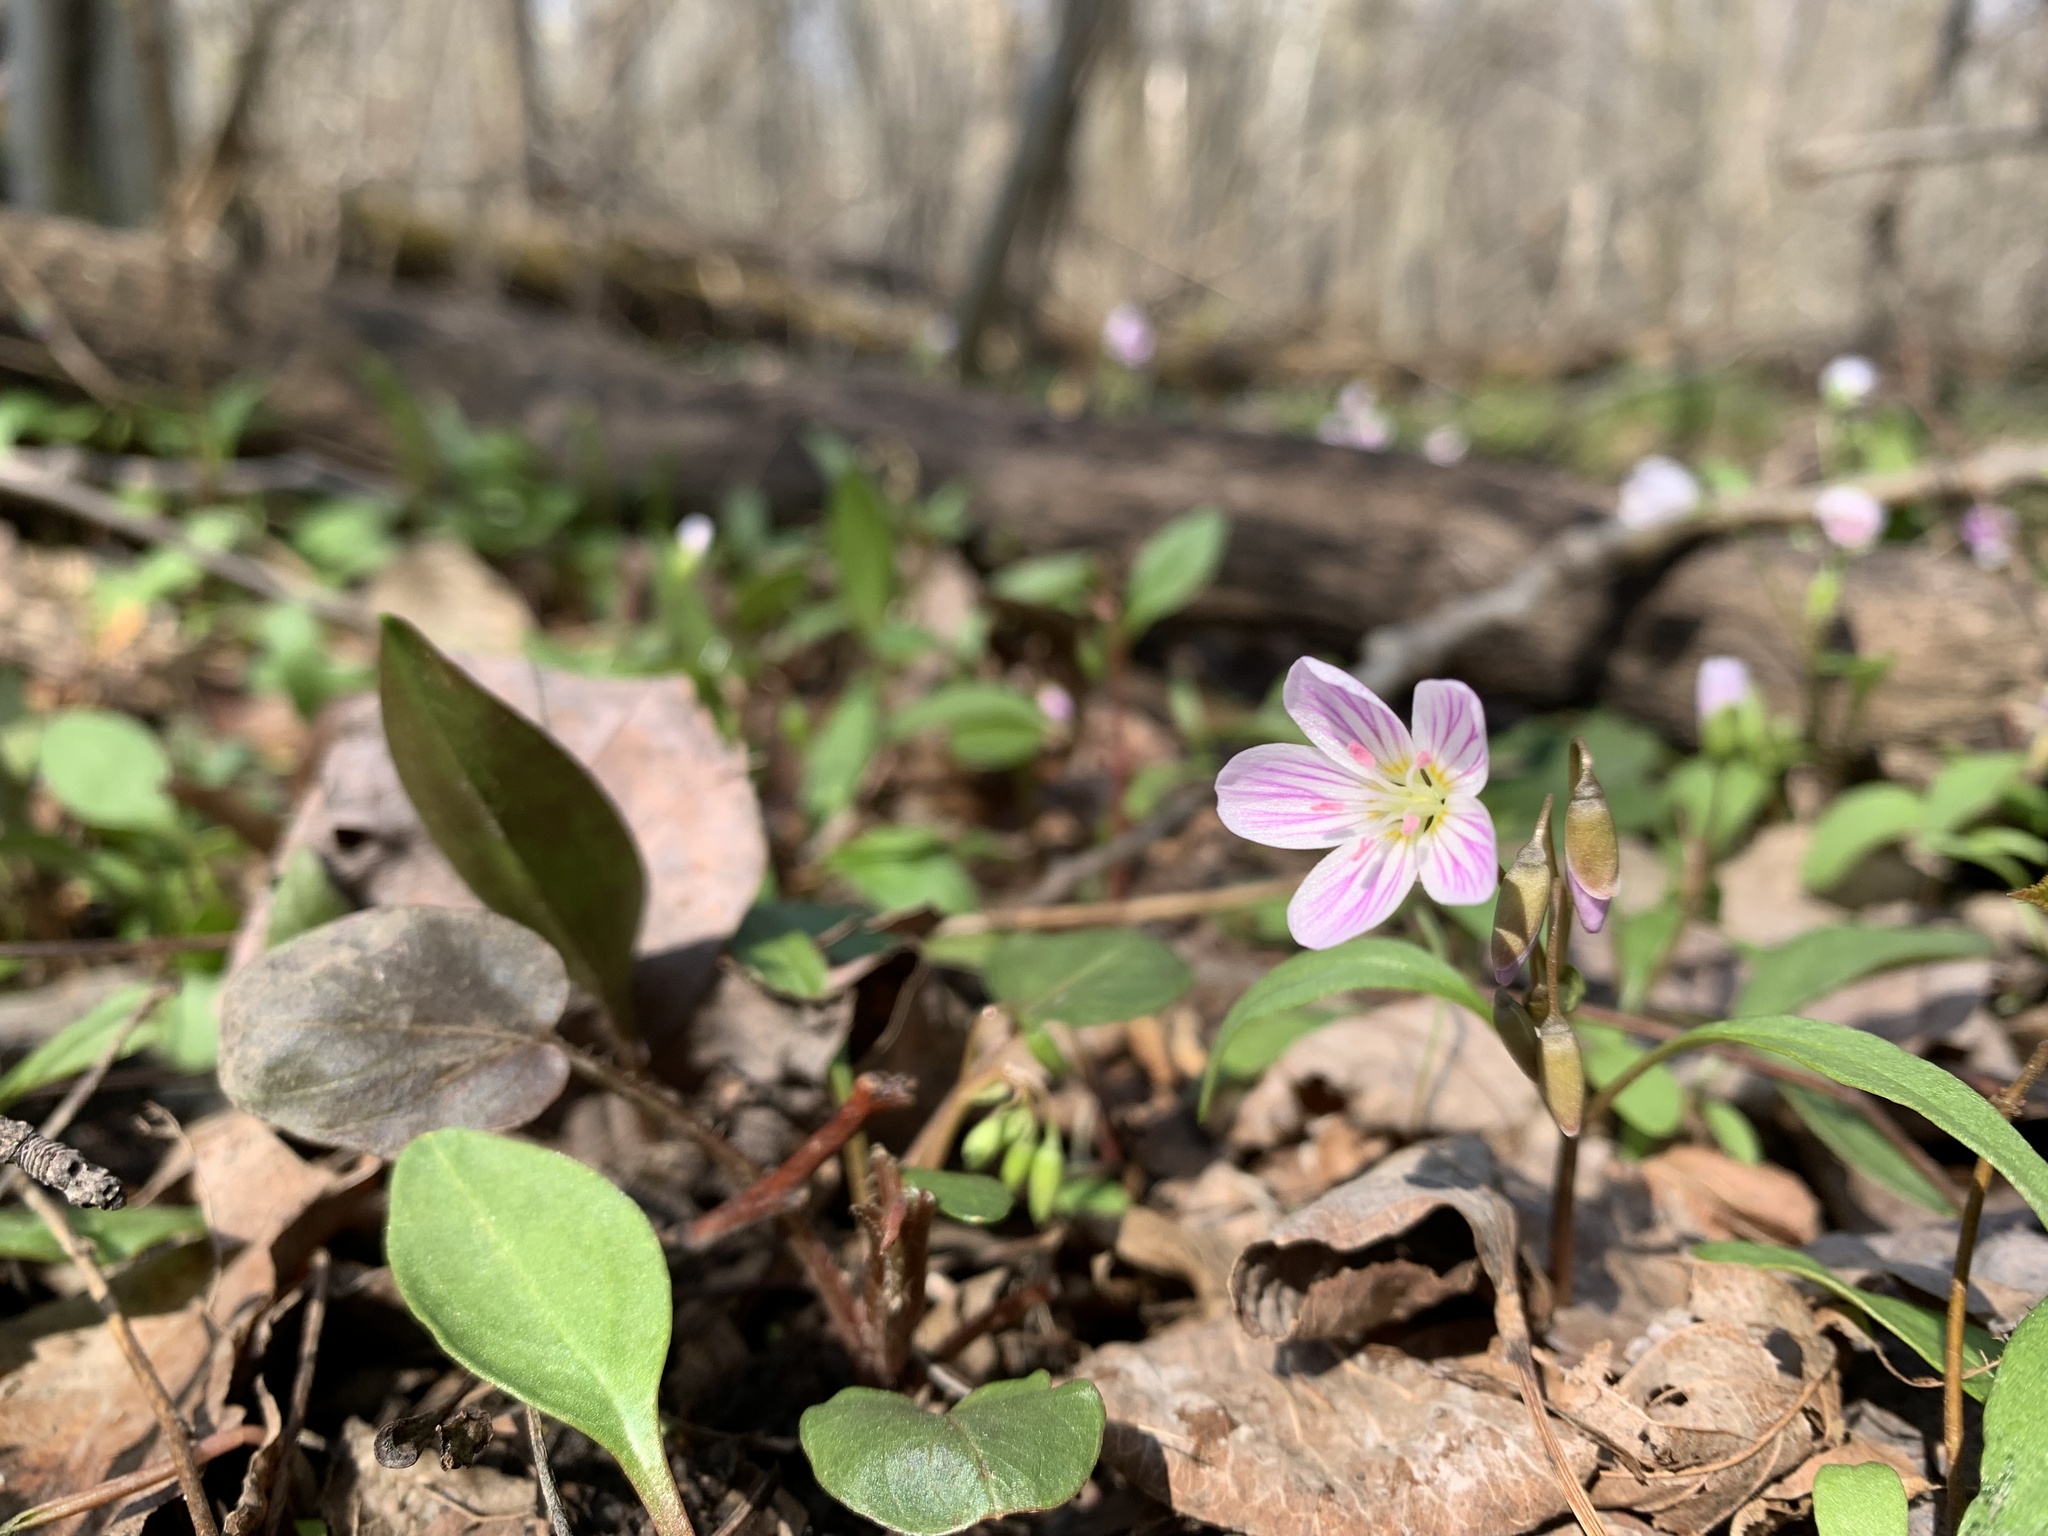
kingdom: Plantae
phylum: Tracheophyta
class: Magnoliopsida
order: Caryophyllales
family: Montiaceae
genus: Claytonia
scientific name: Claytonia caroliniana
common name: Carolina spring beauty
